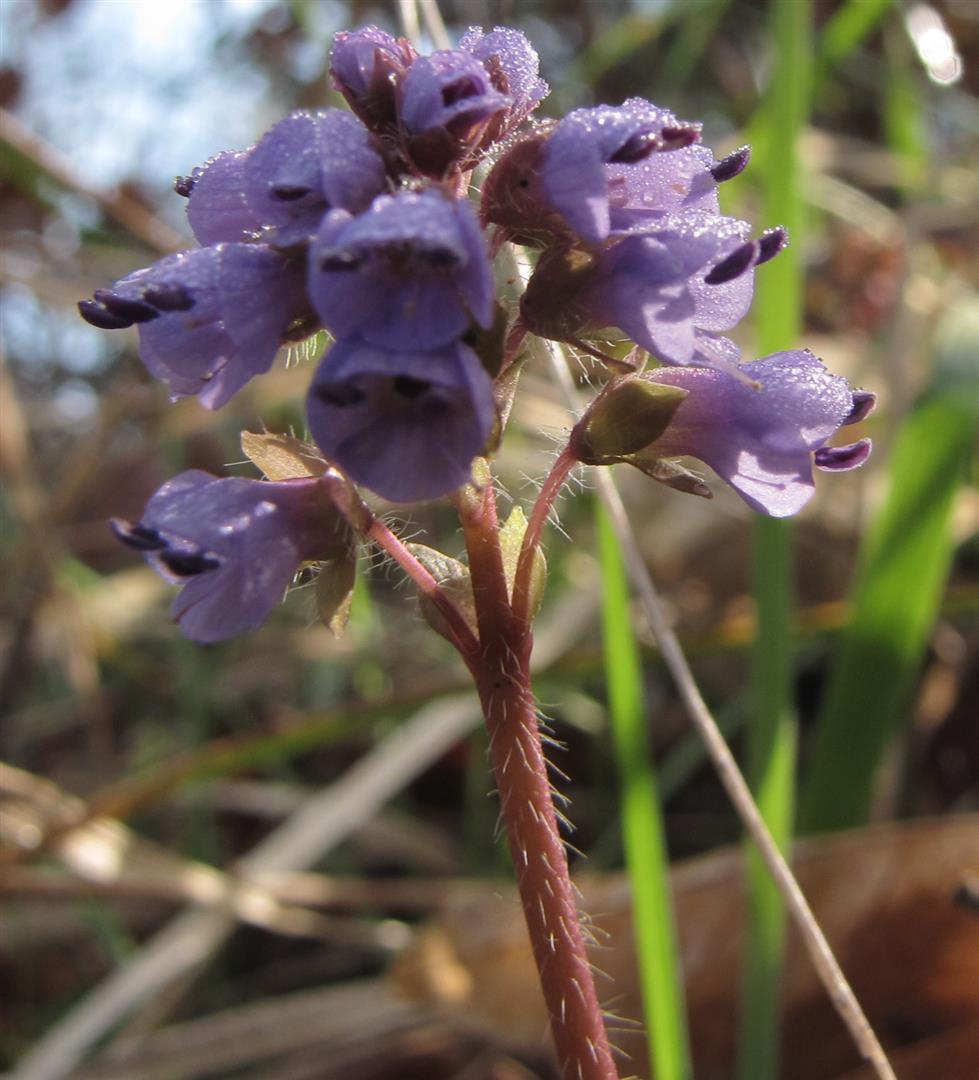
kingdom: Plantae
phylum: Tracheophyta
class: Magnoliopsida
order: Lamiales
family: Plantaginaceae
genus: Synthyris
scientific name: Synthyris reniformis
